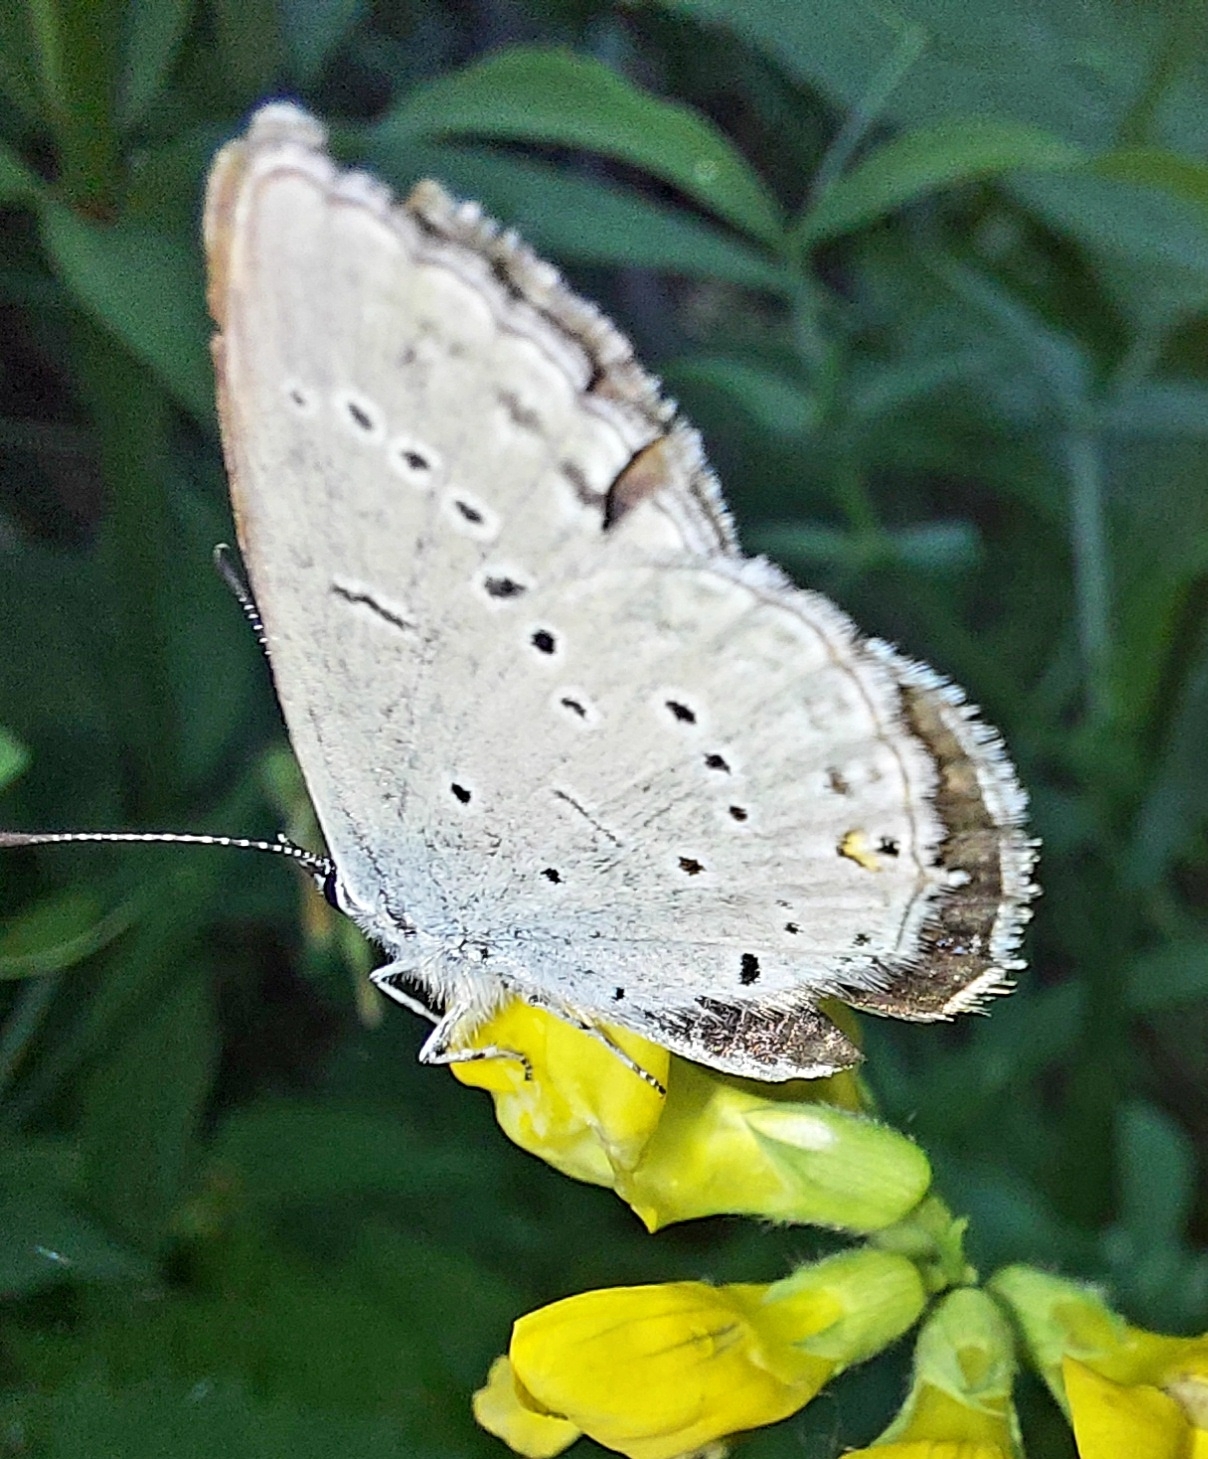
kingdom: Animalia
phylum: Arthropoda
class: Insecta
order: Lepidoptera
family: Lycaenidae
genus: Elkalyce
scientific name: Elkalyce alcetas
